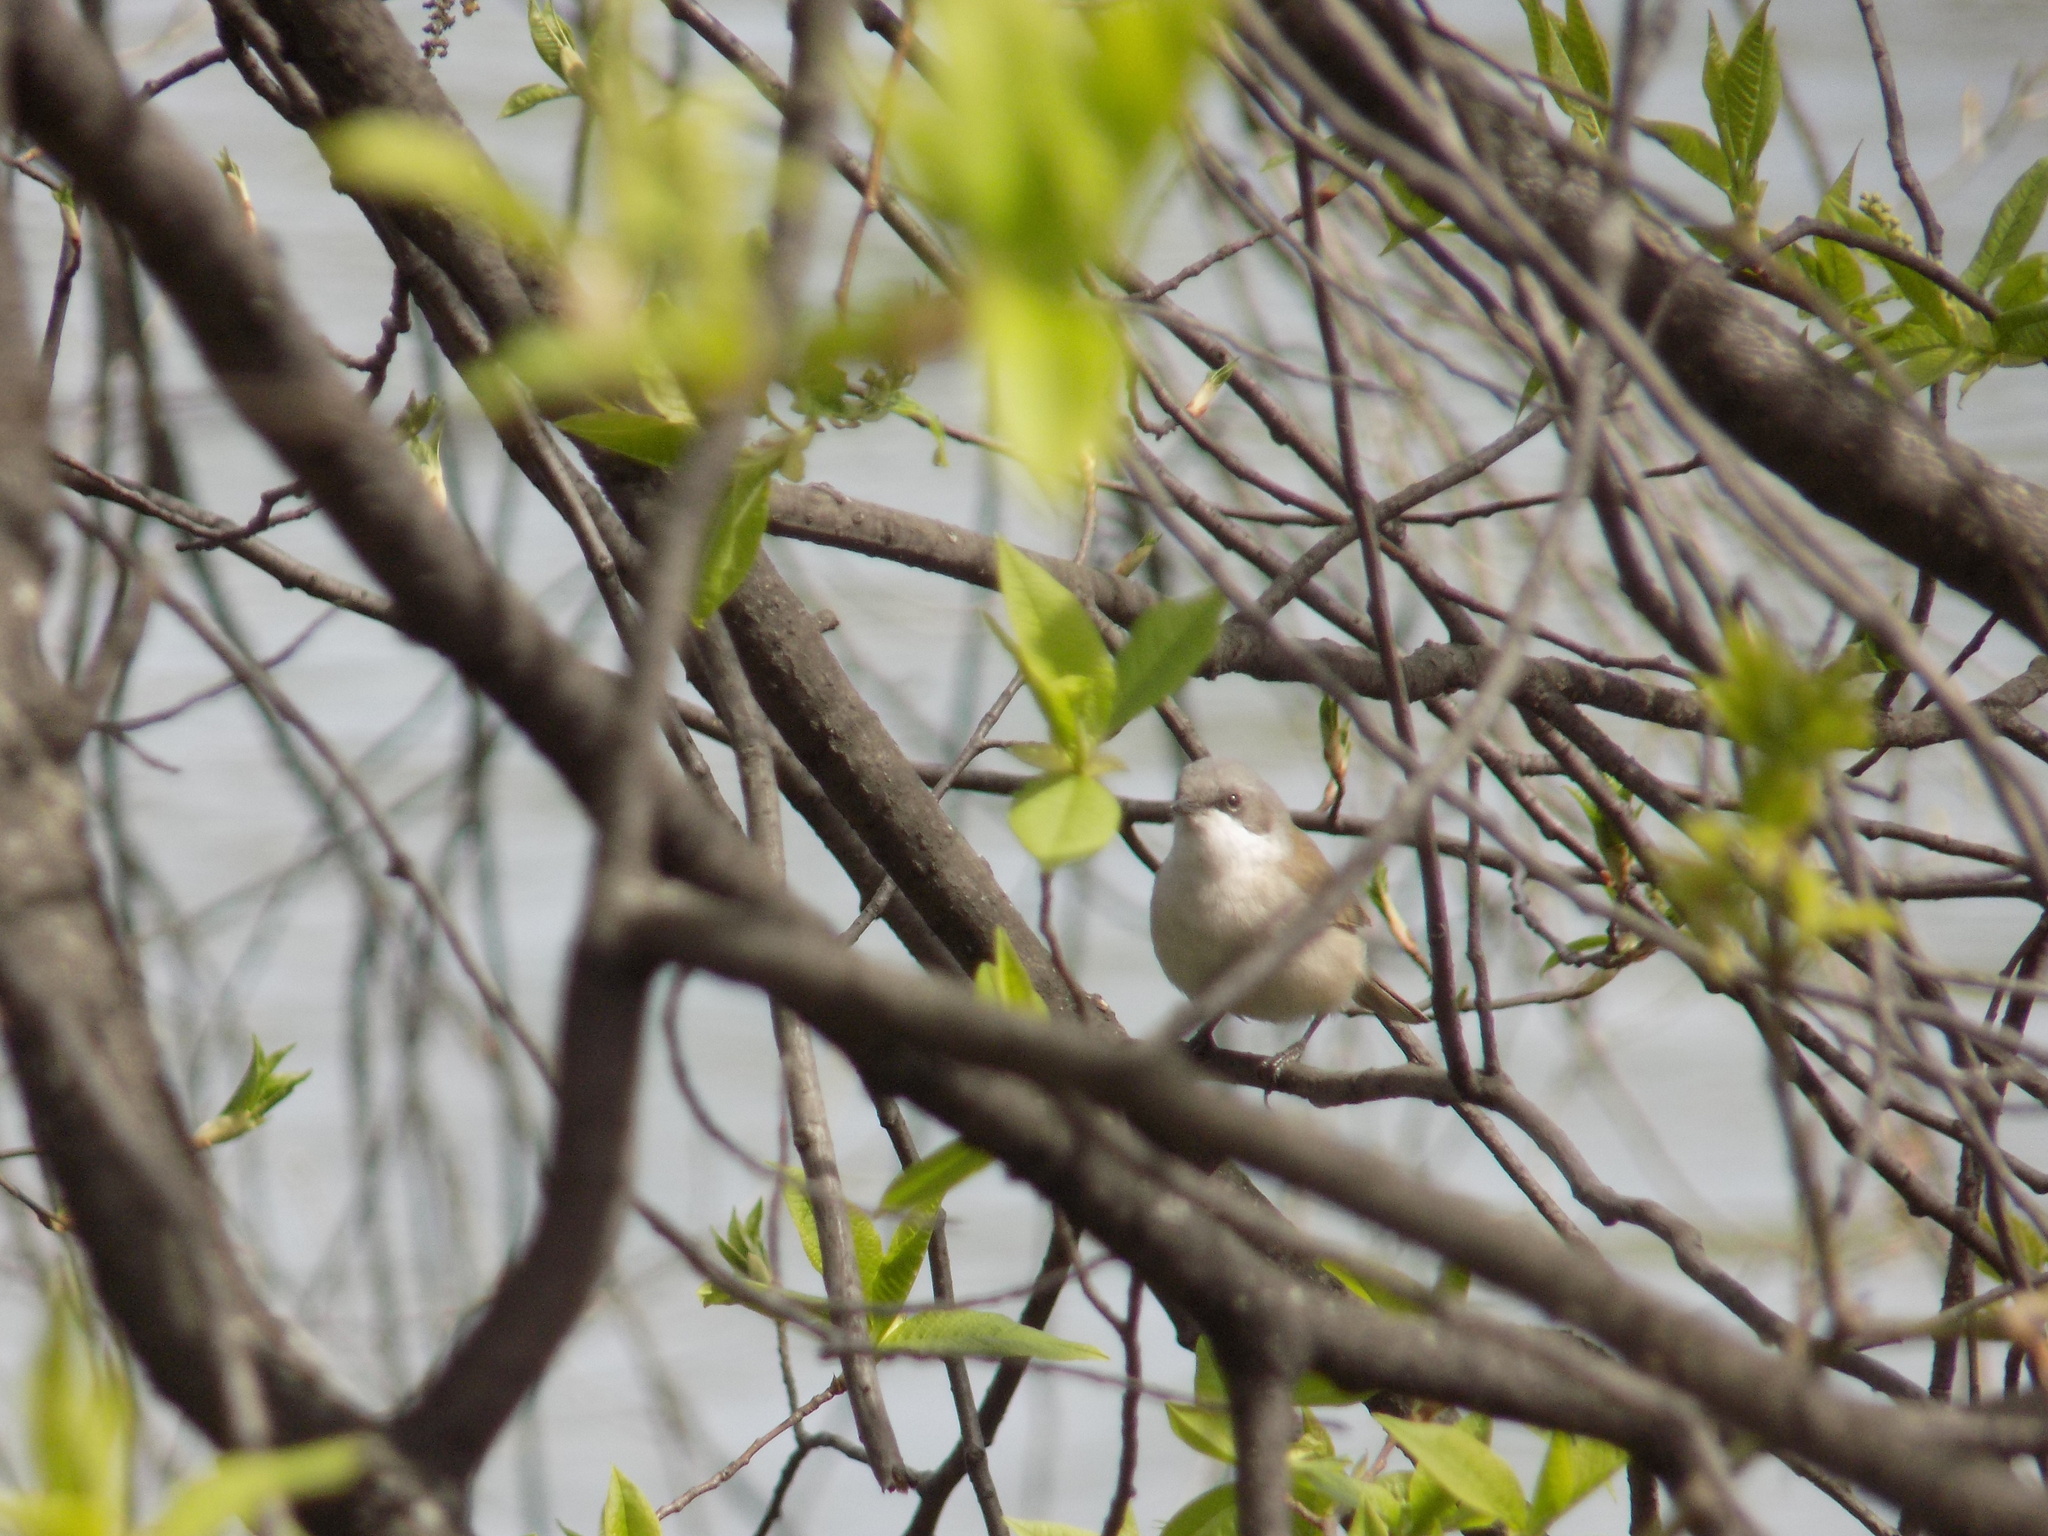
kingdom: Animalia
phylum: Chordata
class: Aves
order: Passeriformes
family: Sylviidae
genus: Sylvia
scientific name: Sylvia curruca
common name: Lesser whitethroat
